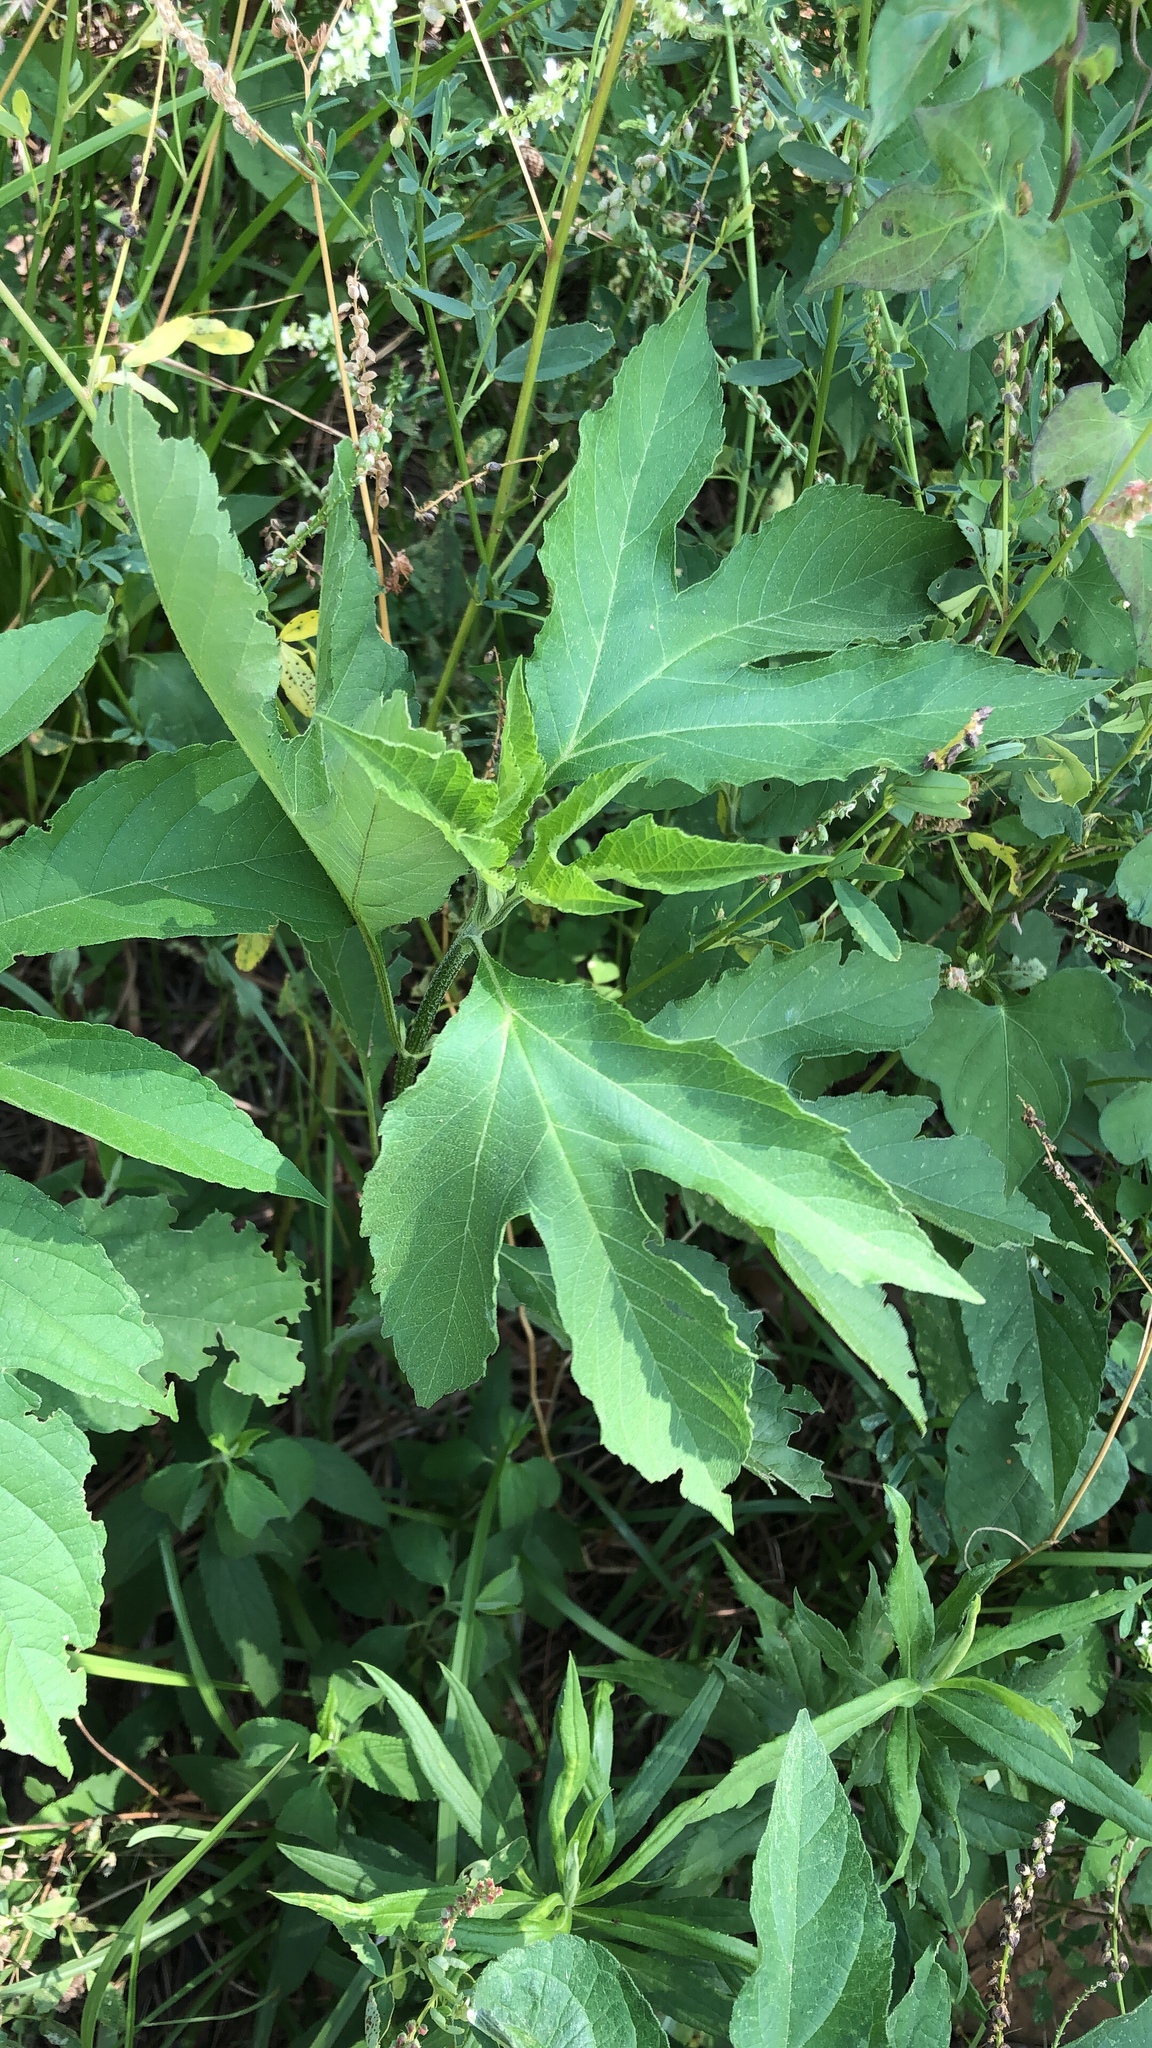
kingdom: Plantae
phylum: Tracheophyta
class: Magnoliopsida
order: Asterales
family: Asteraceae
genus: Ambrosia
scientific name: Ambrosia trifida
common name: Giant ragweed
